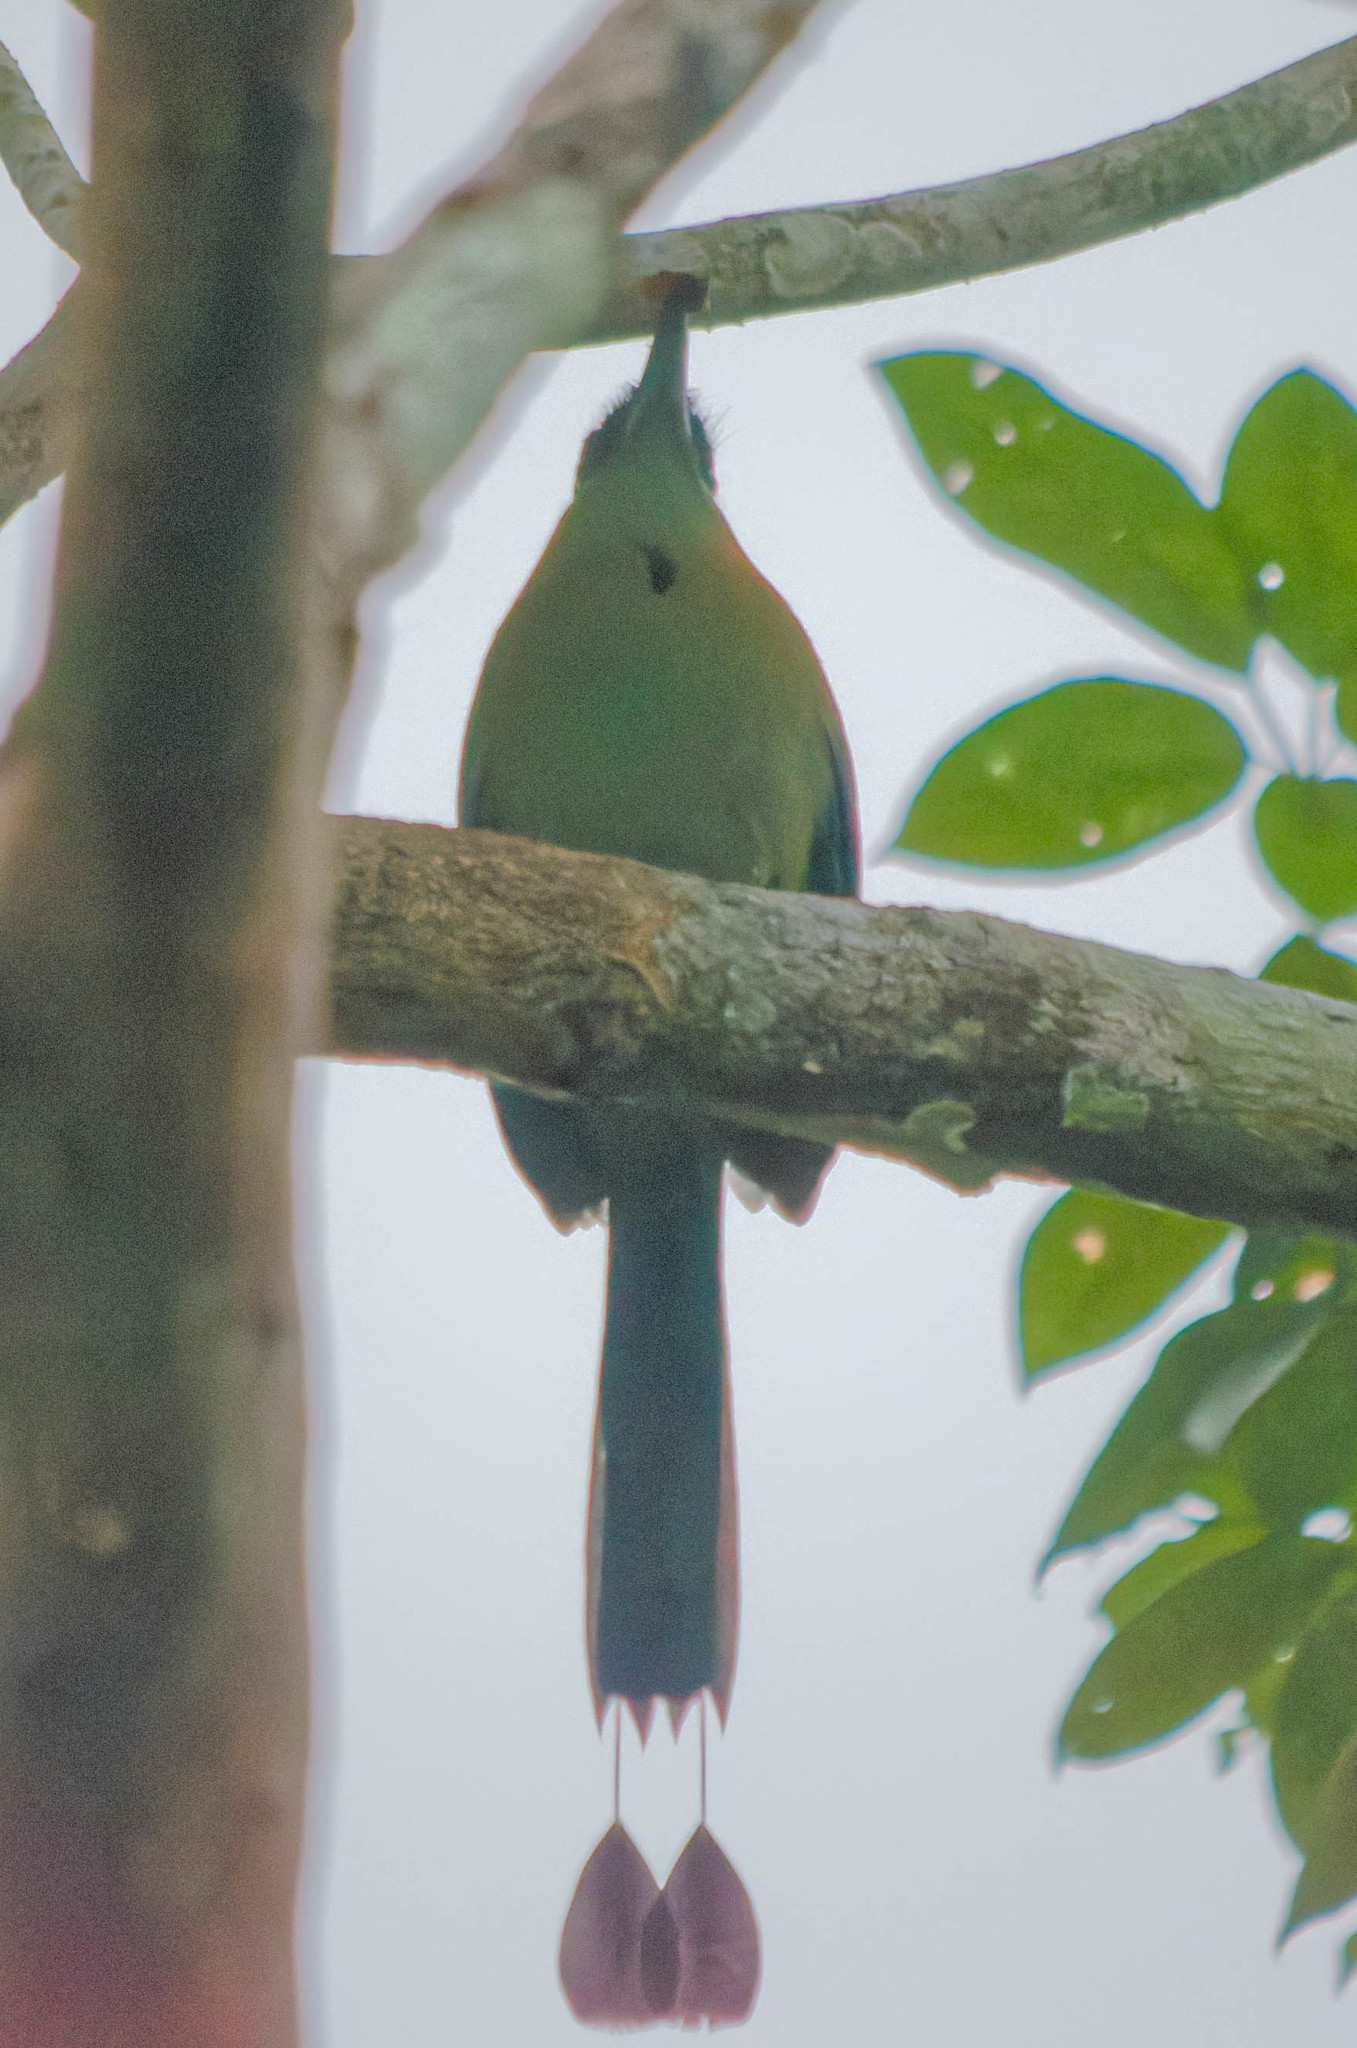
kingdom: Animalia
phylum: Chordata
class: Aves
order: Coraciiformes
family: Momotidae
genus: Momotus
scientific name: Momotus lessonii
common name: Lesson's motmot
